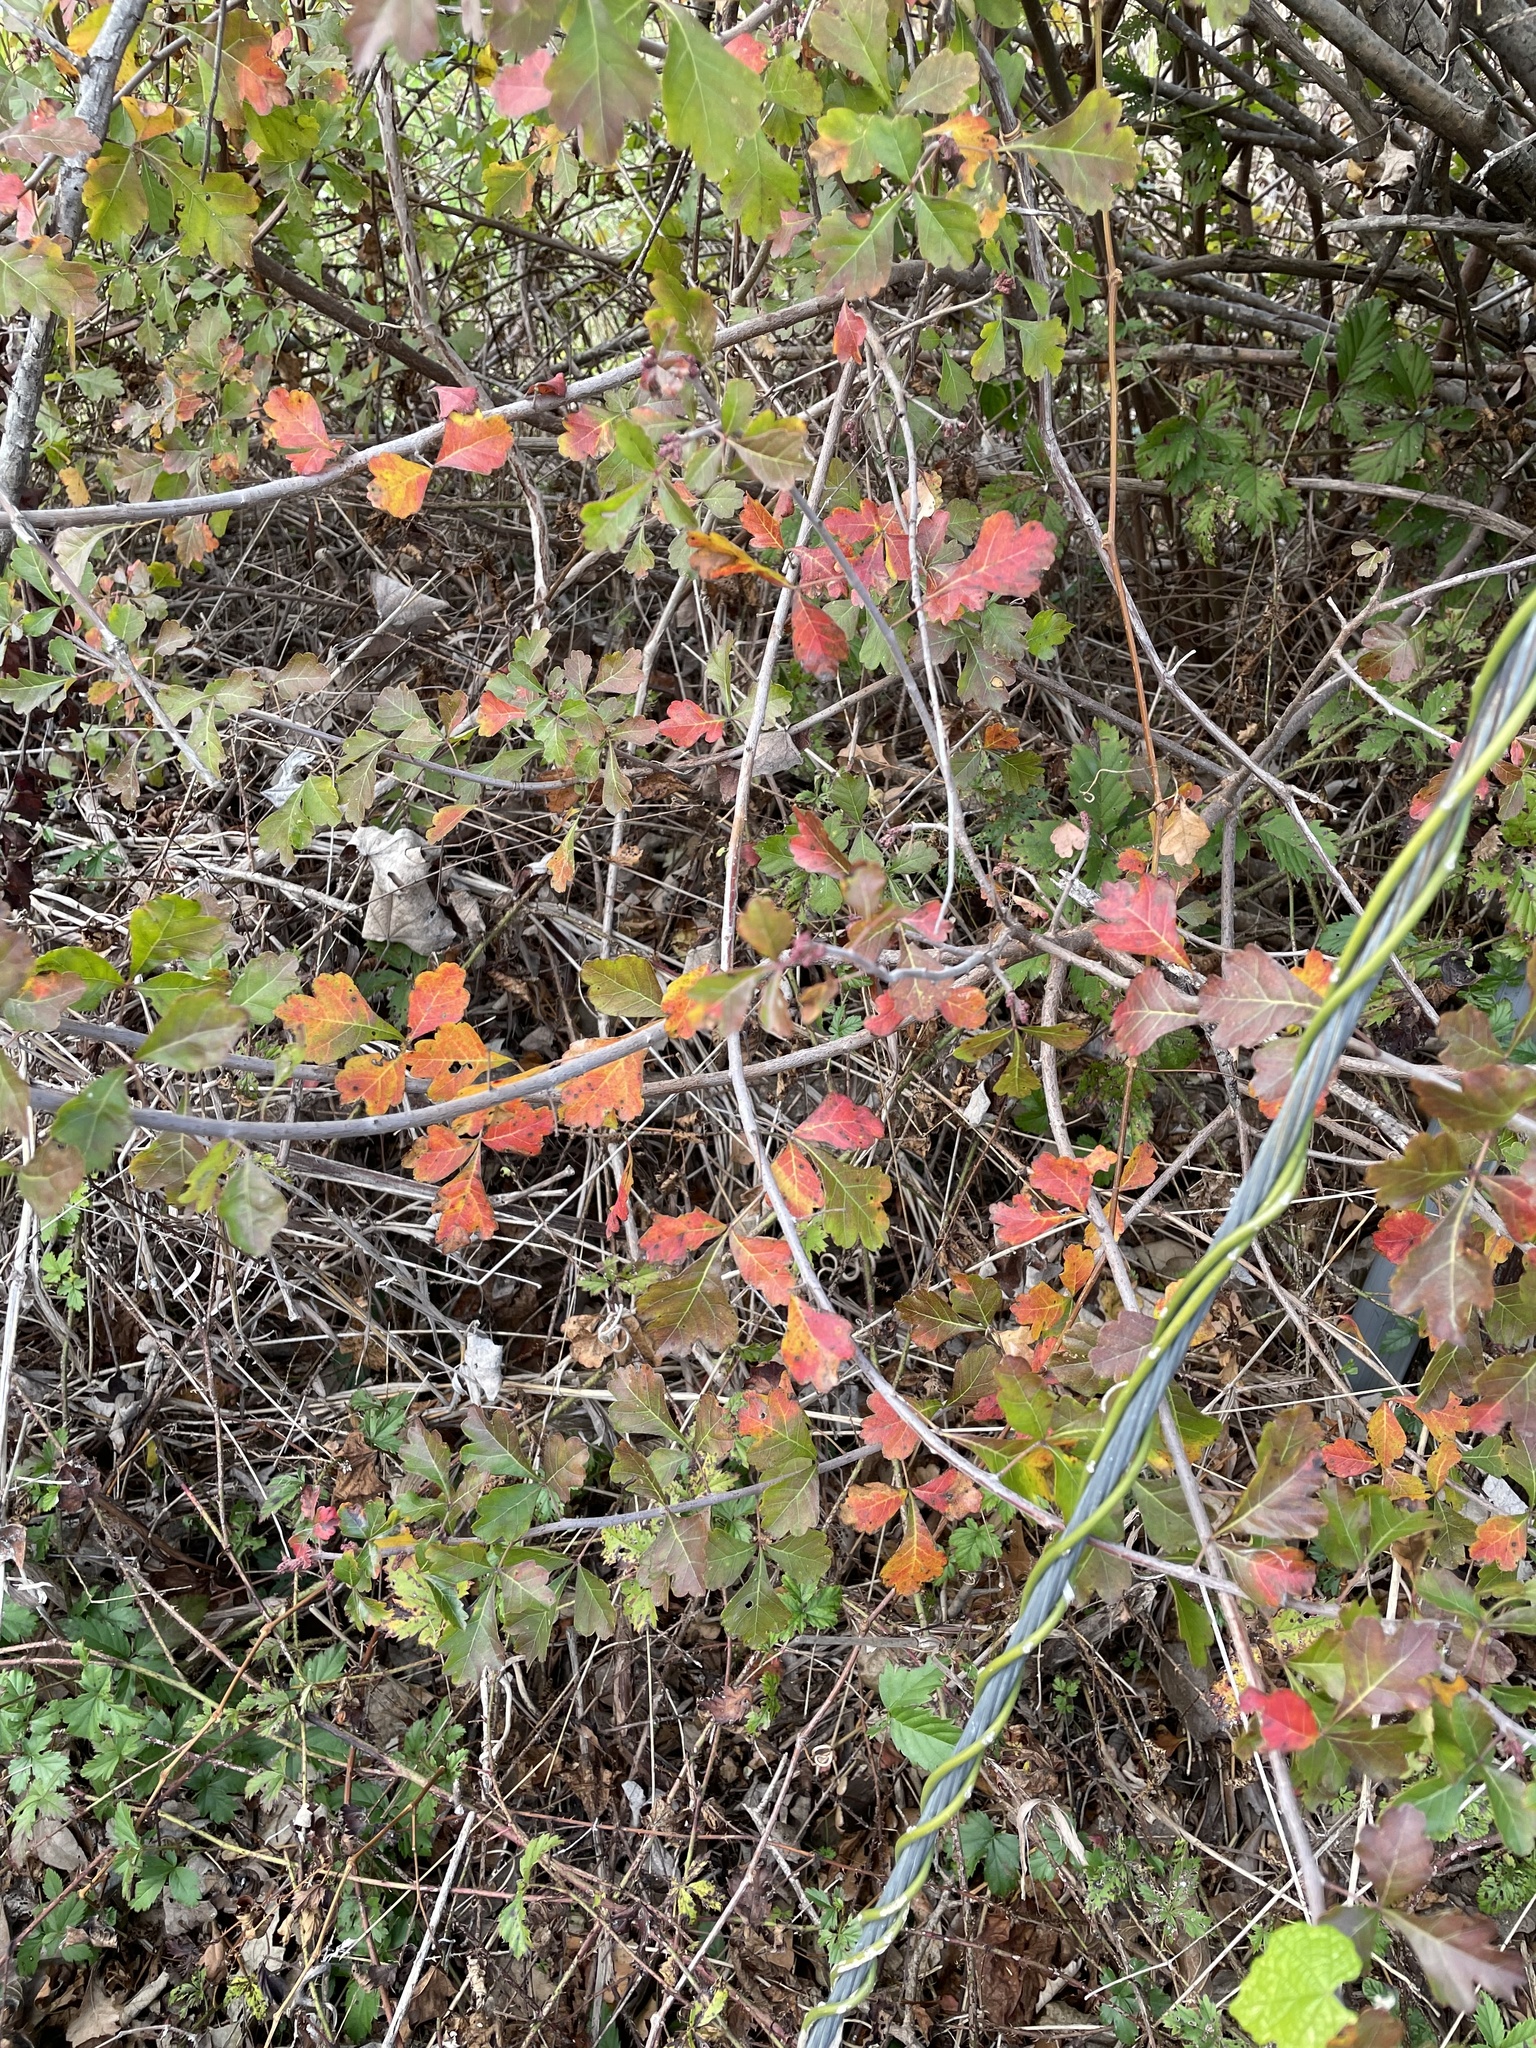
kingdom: Plantae
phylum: Tracheophyta
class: Magnoliopsida
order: Sapindales
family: Anacardiaceae
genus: Rhus
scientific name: Rhus aromatica
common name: Aromatic sumac
